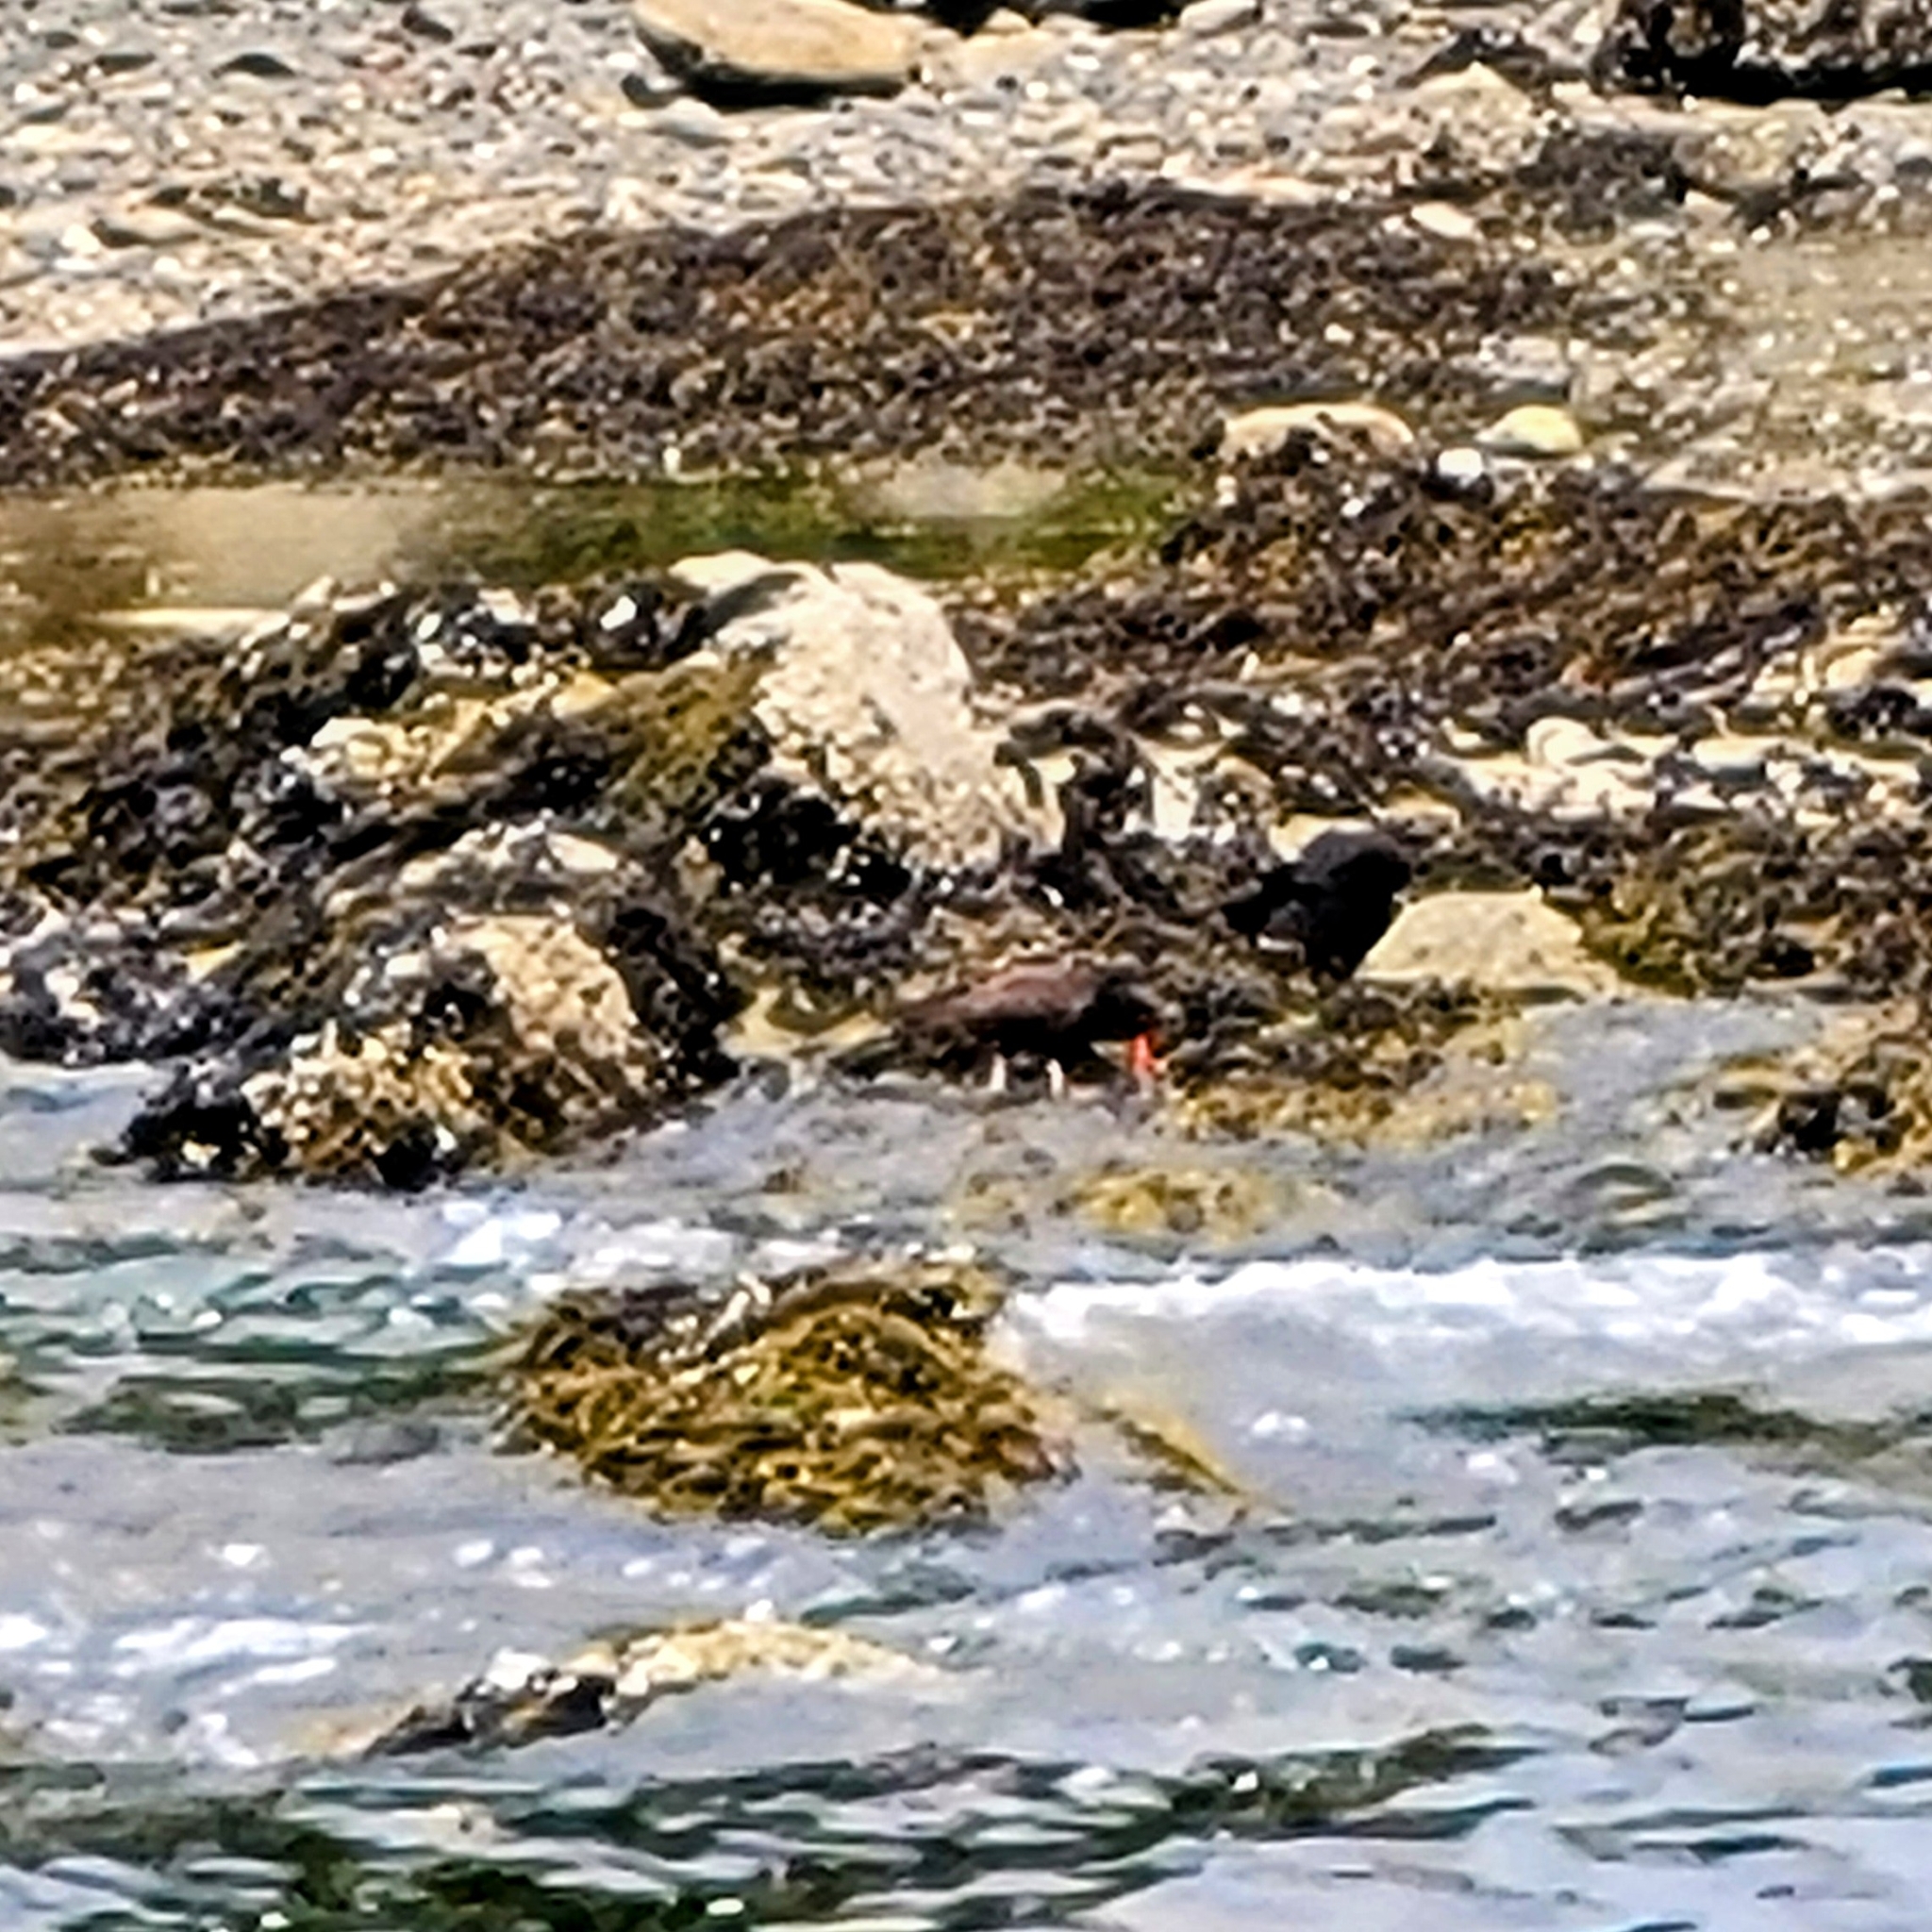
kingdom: Animalia
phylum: Chordata
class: Aves
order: Charadriiformes
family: Haematopodidae
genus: Haematopus
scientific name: Haematopus bachmani
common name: Black oystercatcher
